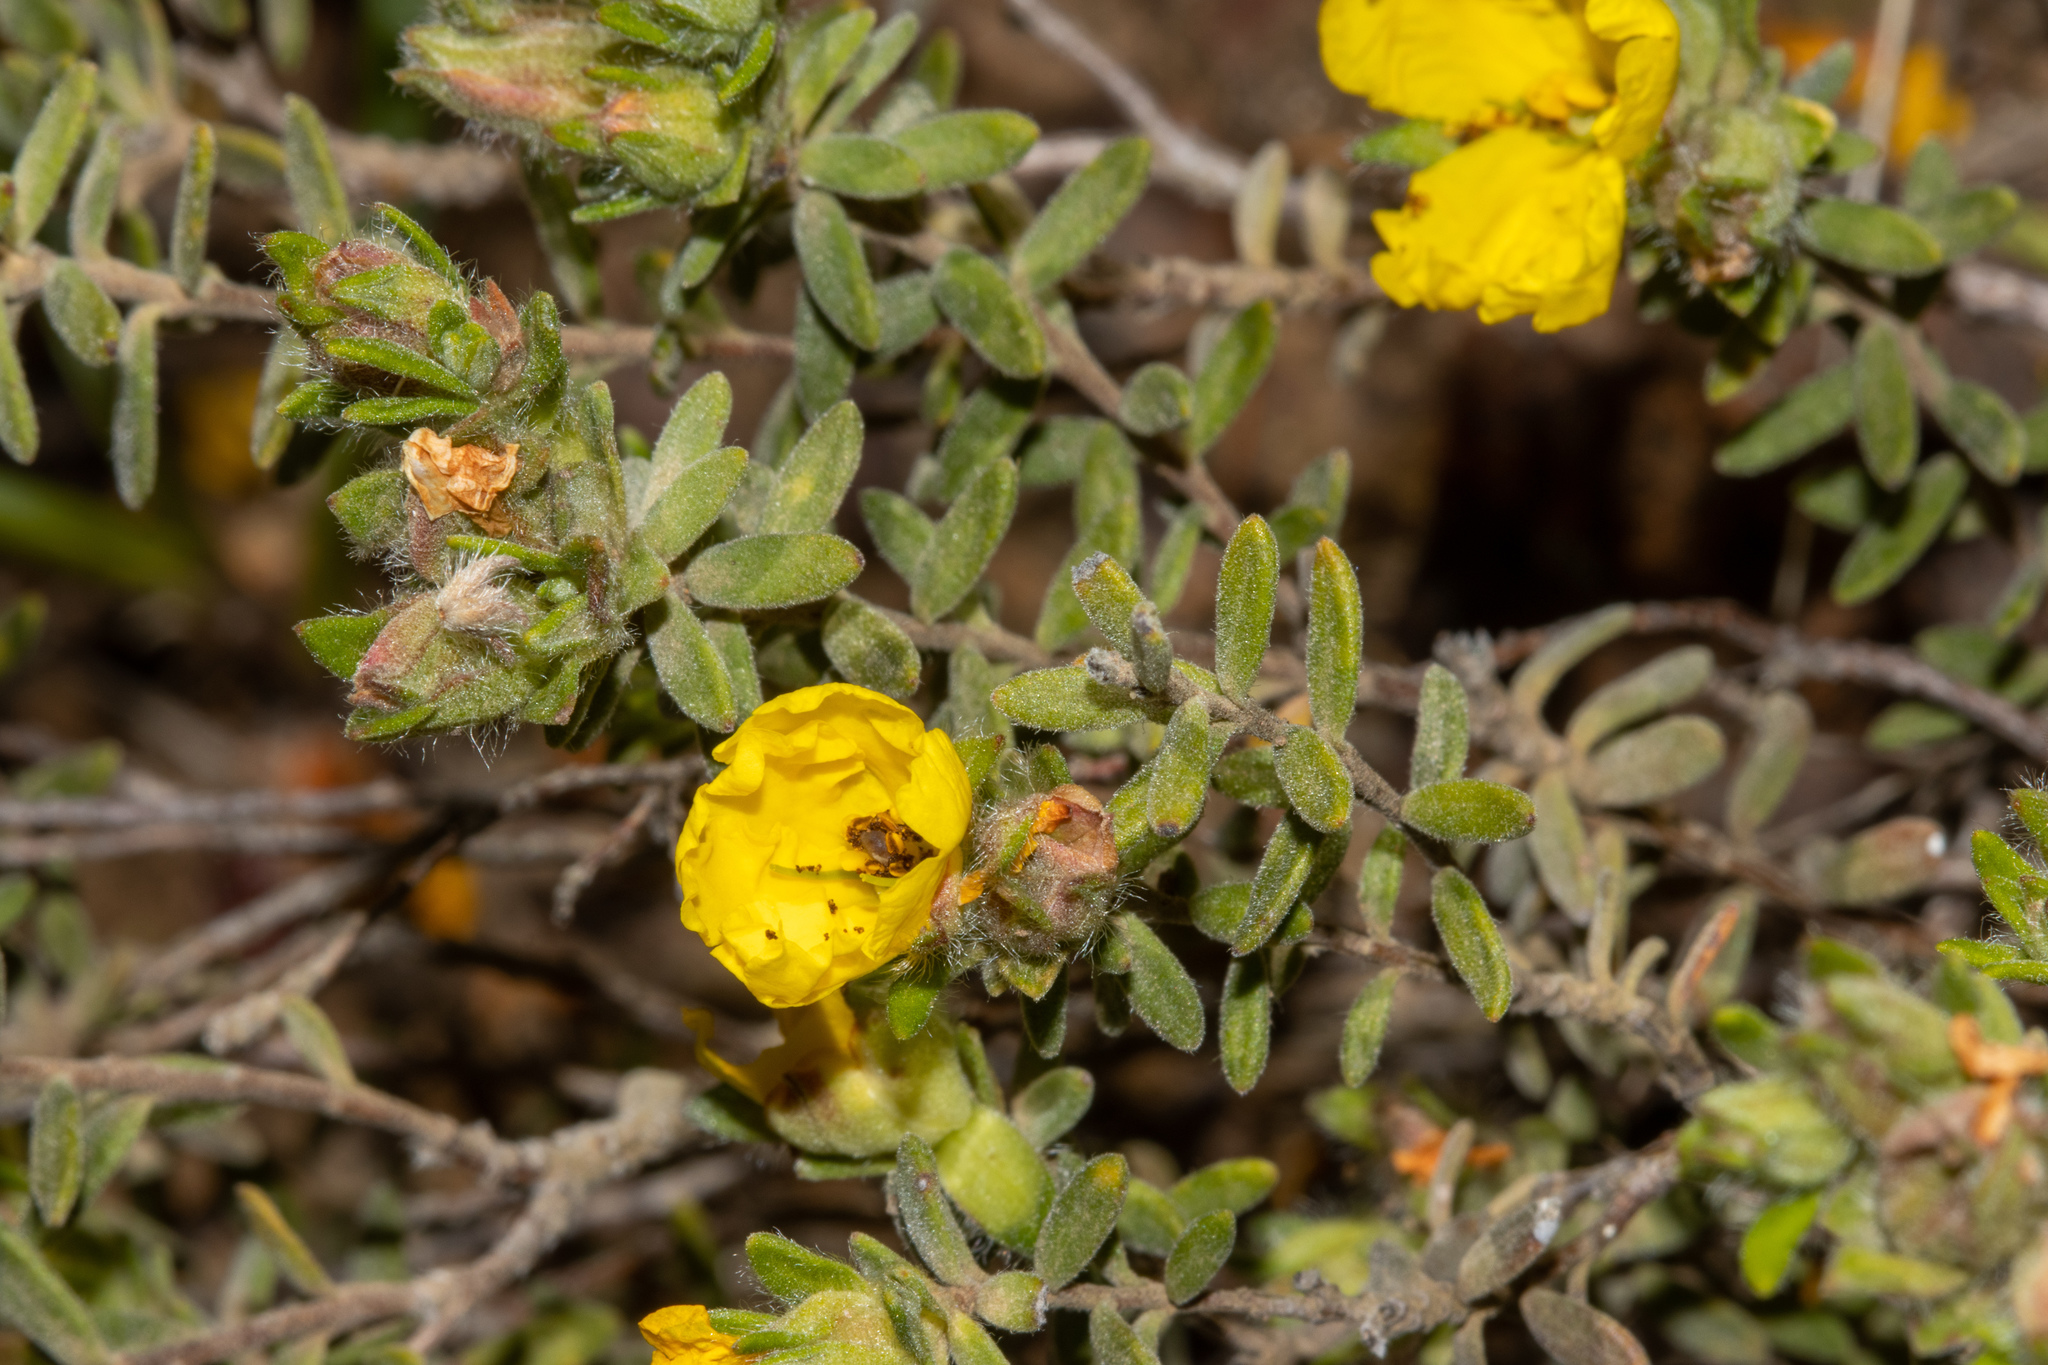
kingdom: Plantae
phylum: Tracheophyta
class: Magnoliopsida
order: Dilleniales
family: Dilleniaceae
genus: Hibbertia
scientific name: Hibbertia crinita
